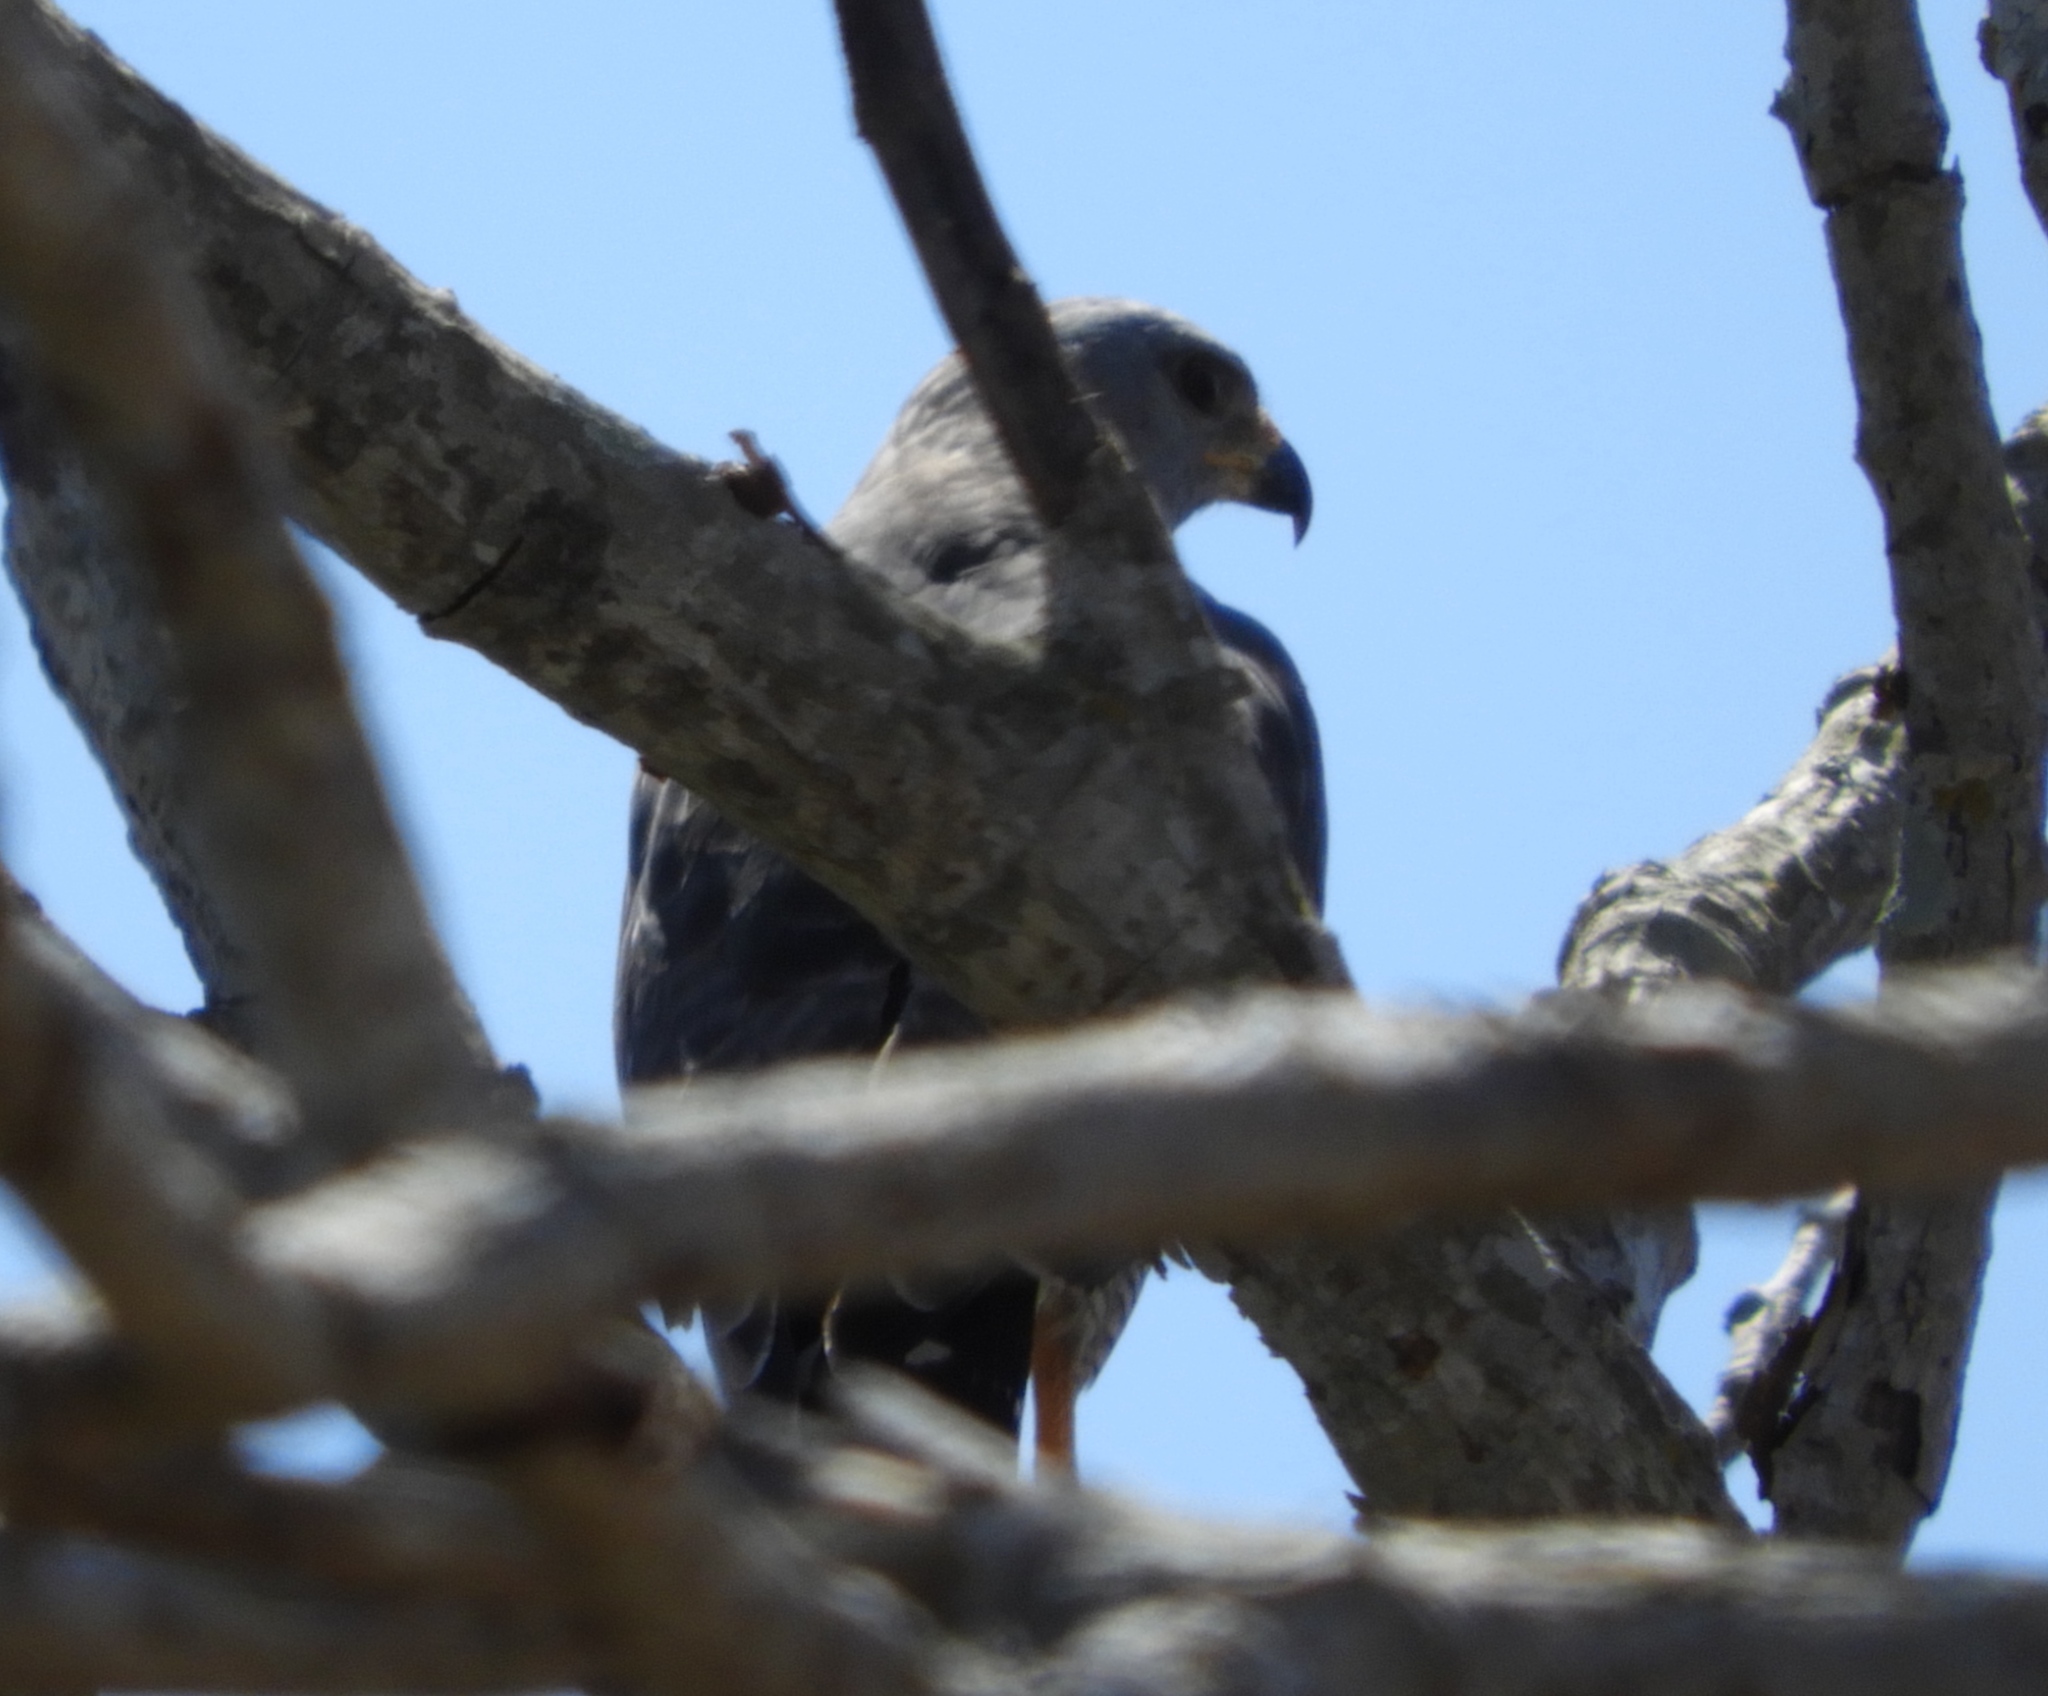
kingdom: Animalia
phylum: Chordata
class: Aves
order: Accipitriformes
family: Accipitridae
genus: Buteo
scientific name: Buteo nitidus
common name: Grey-lined hawk
